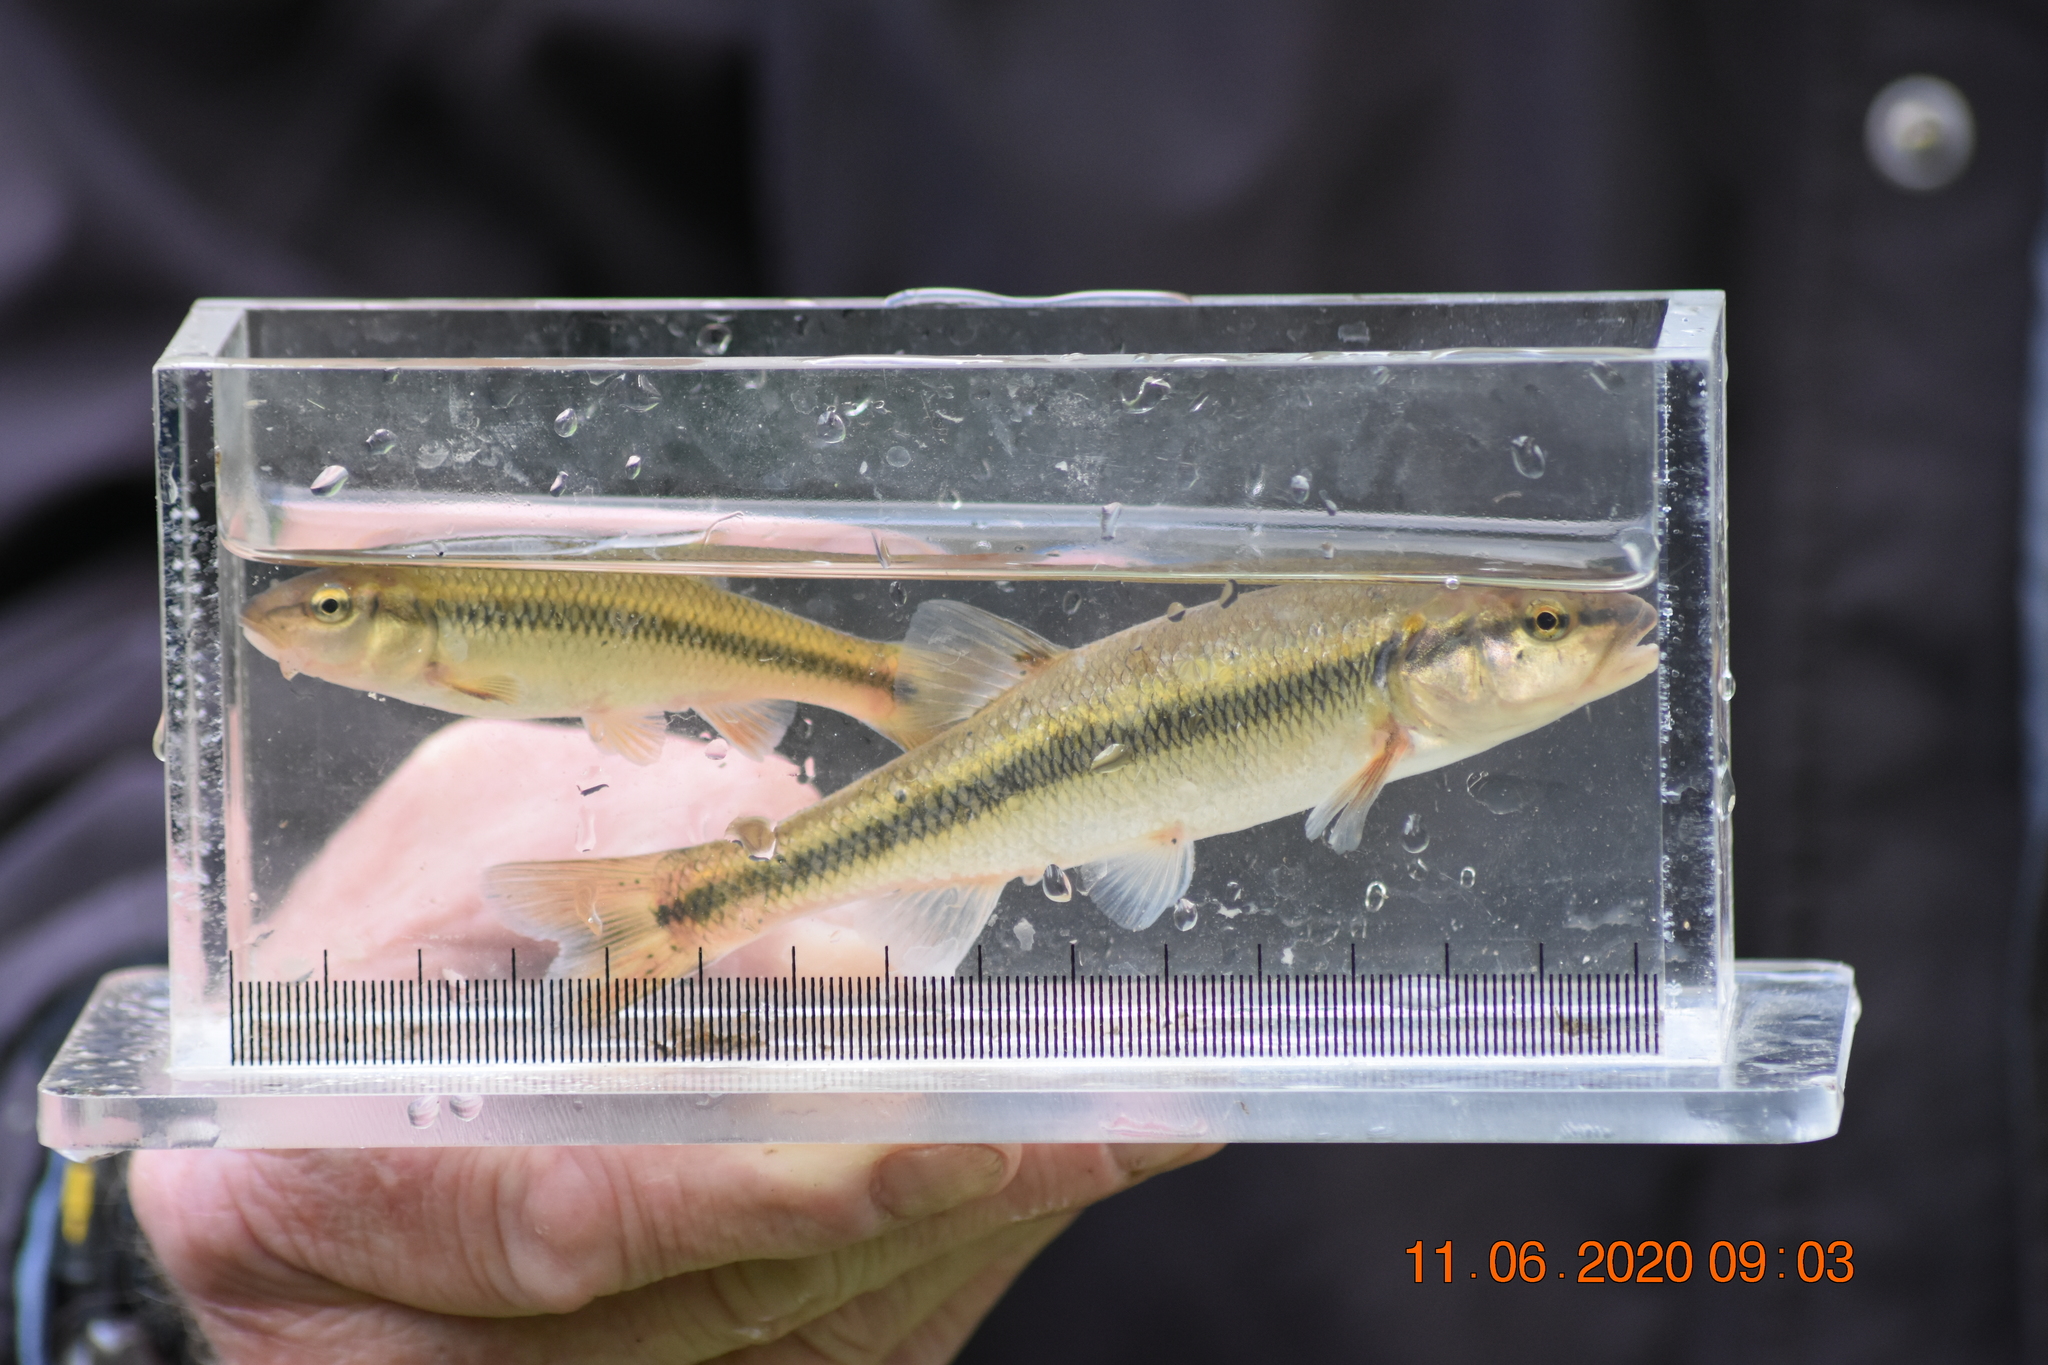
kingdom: Animalia
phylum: Chordata
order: Cypriniformes
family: Cyprinidae
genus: Semotilus
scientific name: Semotilus atromaculatus
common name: Creek chub
